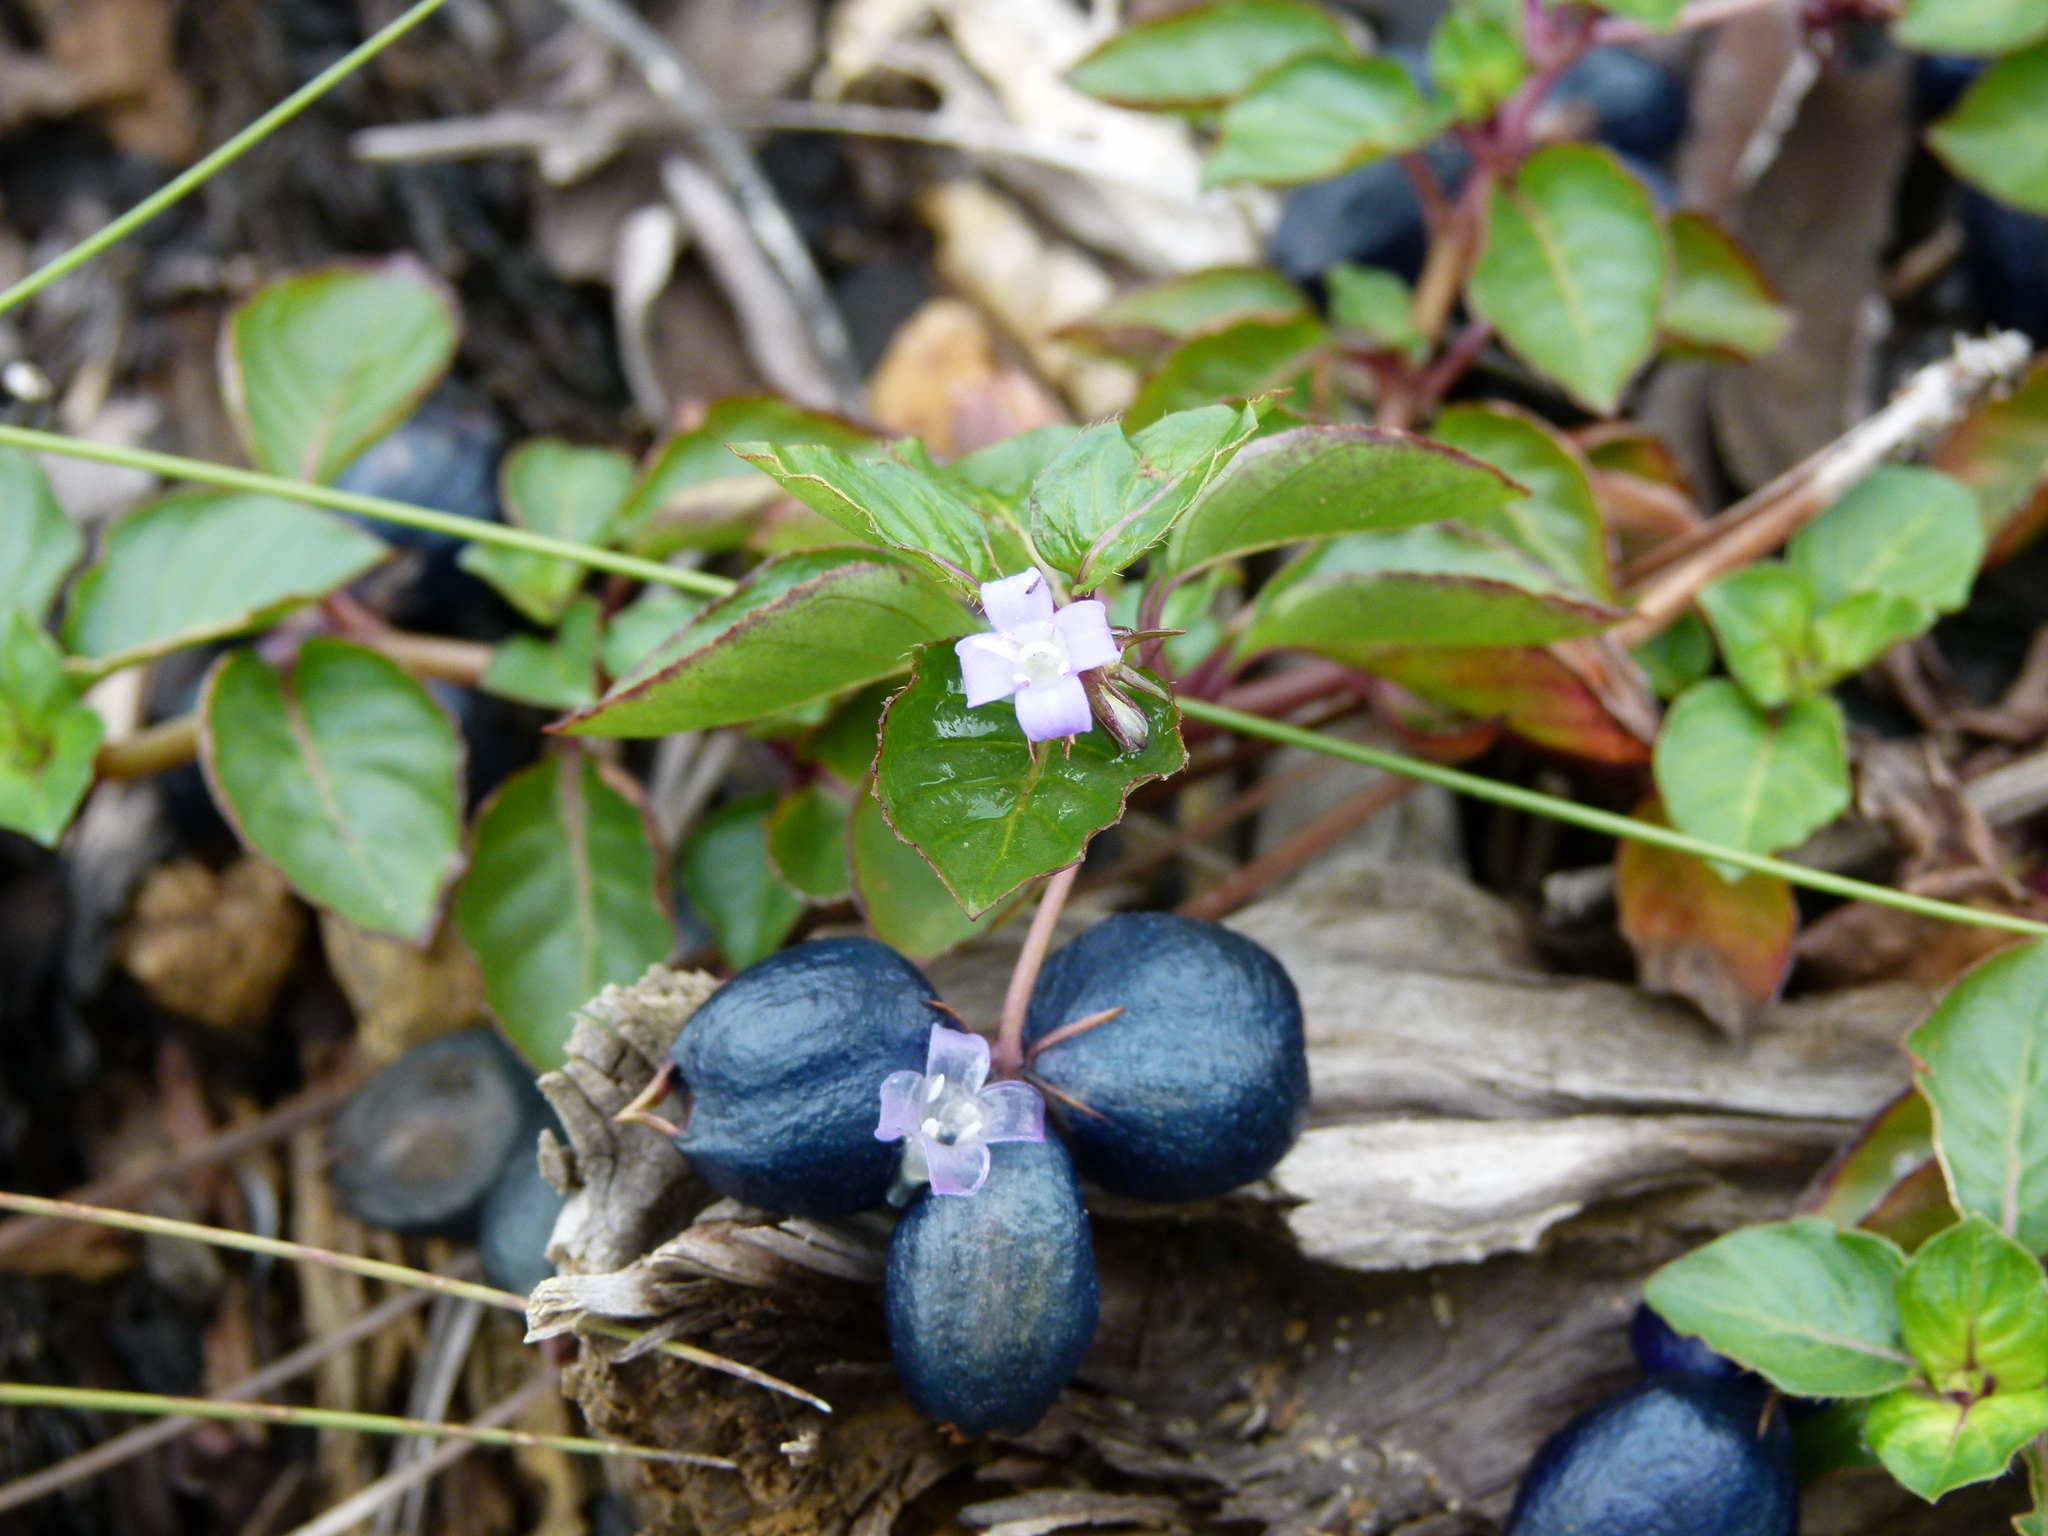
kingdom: Plantae
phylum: Tracheophyta
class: Magnoliopsida
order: Gentianales
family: Rubiaceae
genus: Coccocypselum
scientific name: Coccocypselum hirsutum
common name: Yerba de guava
